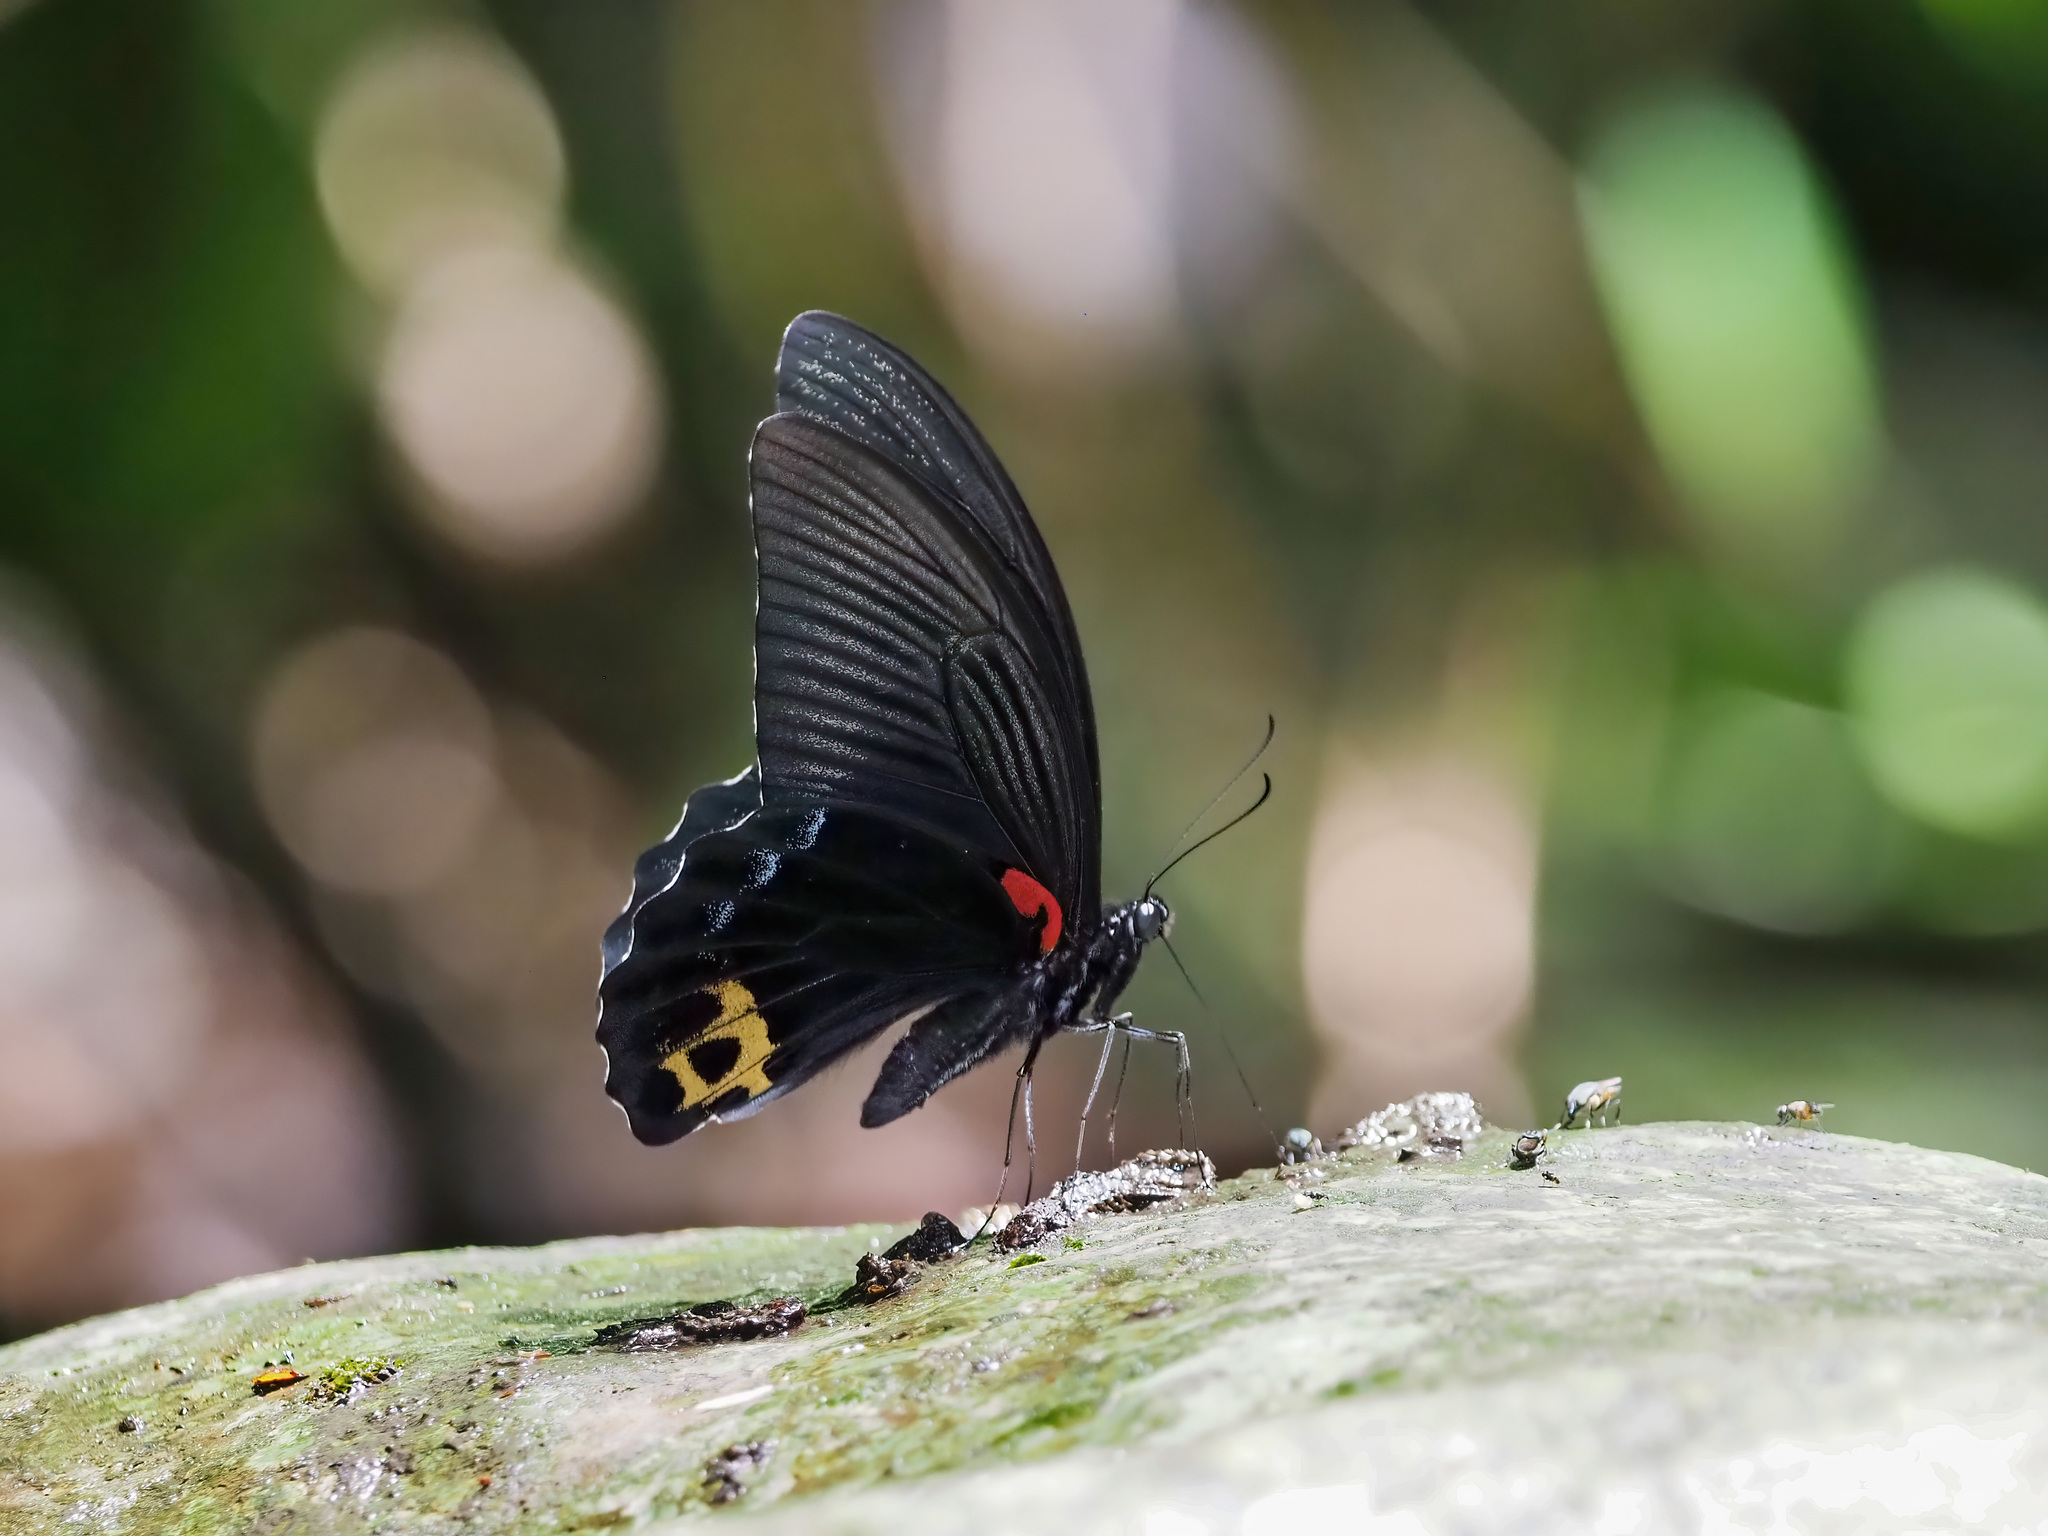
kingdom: Animalia
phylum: Arthropoda
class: Insecta
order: Lepidoptera
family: Papilionidae
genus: Papilio
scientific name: Papilio acheron
